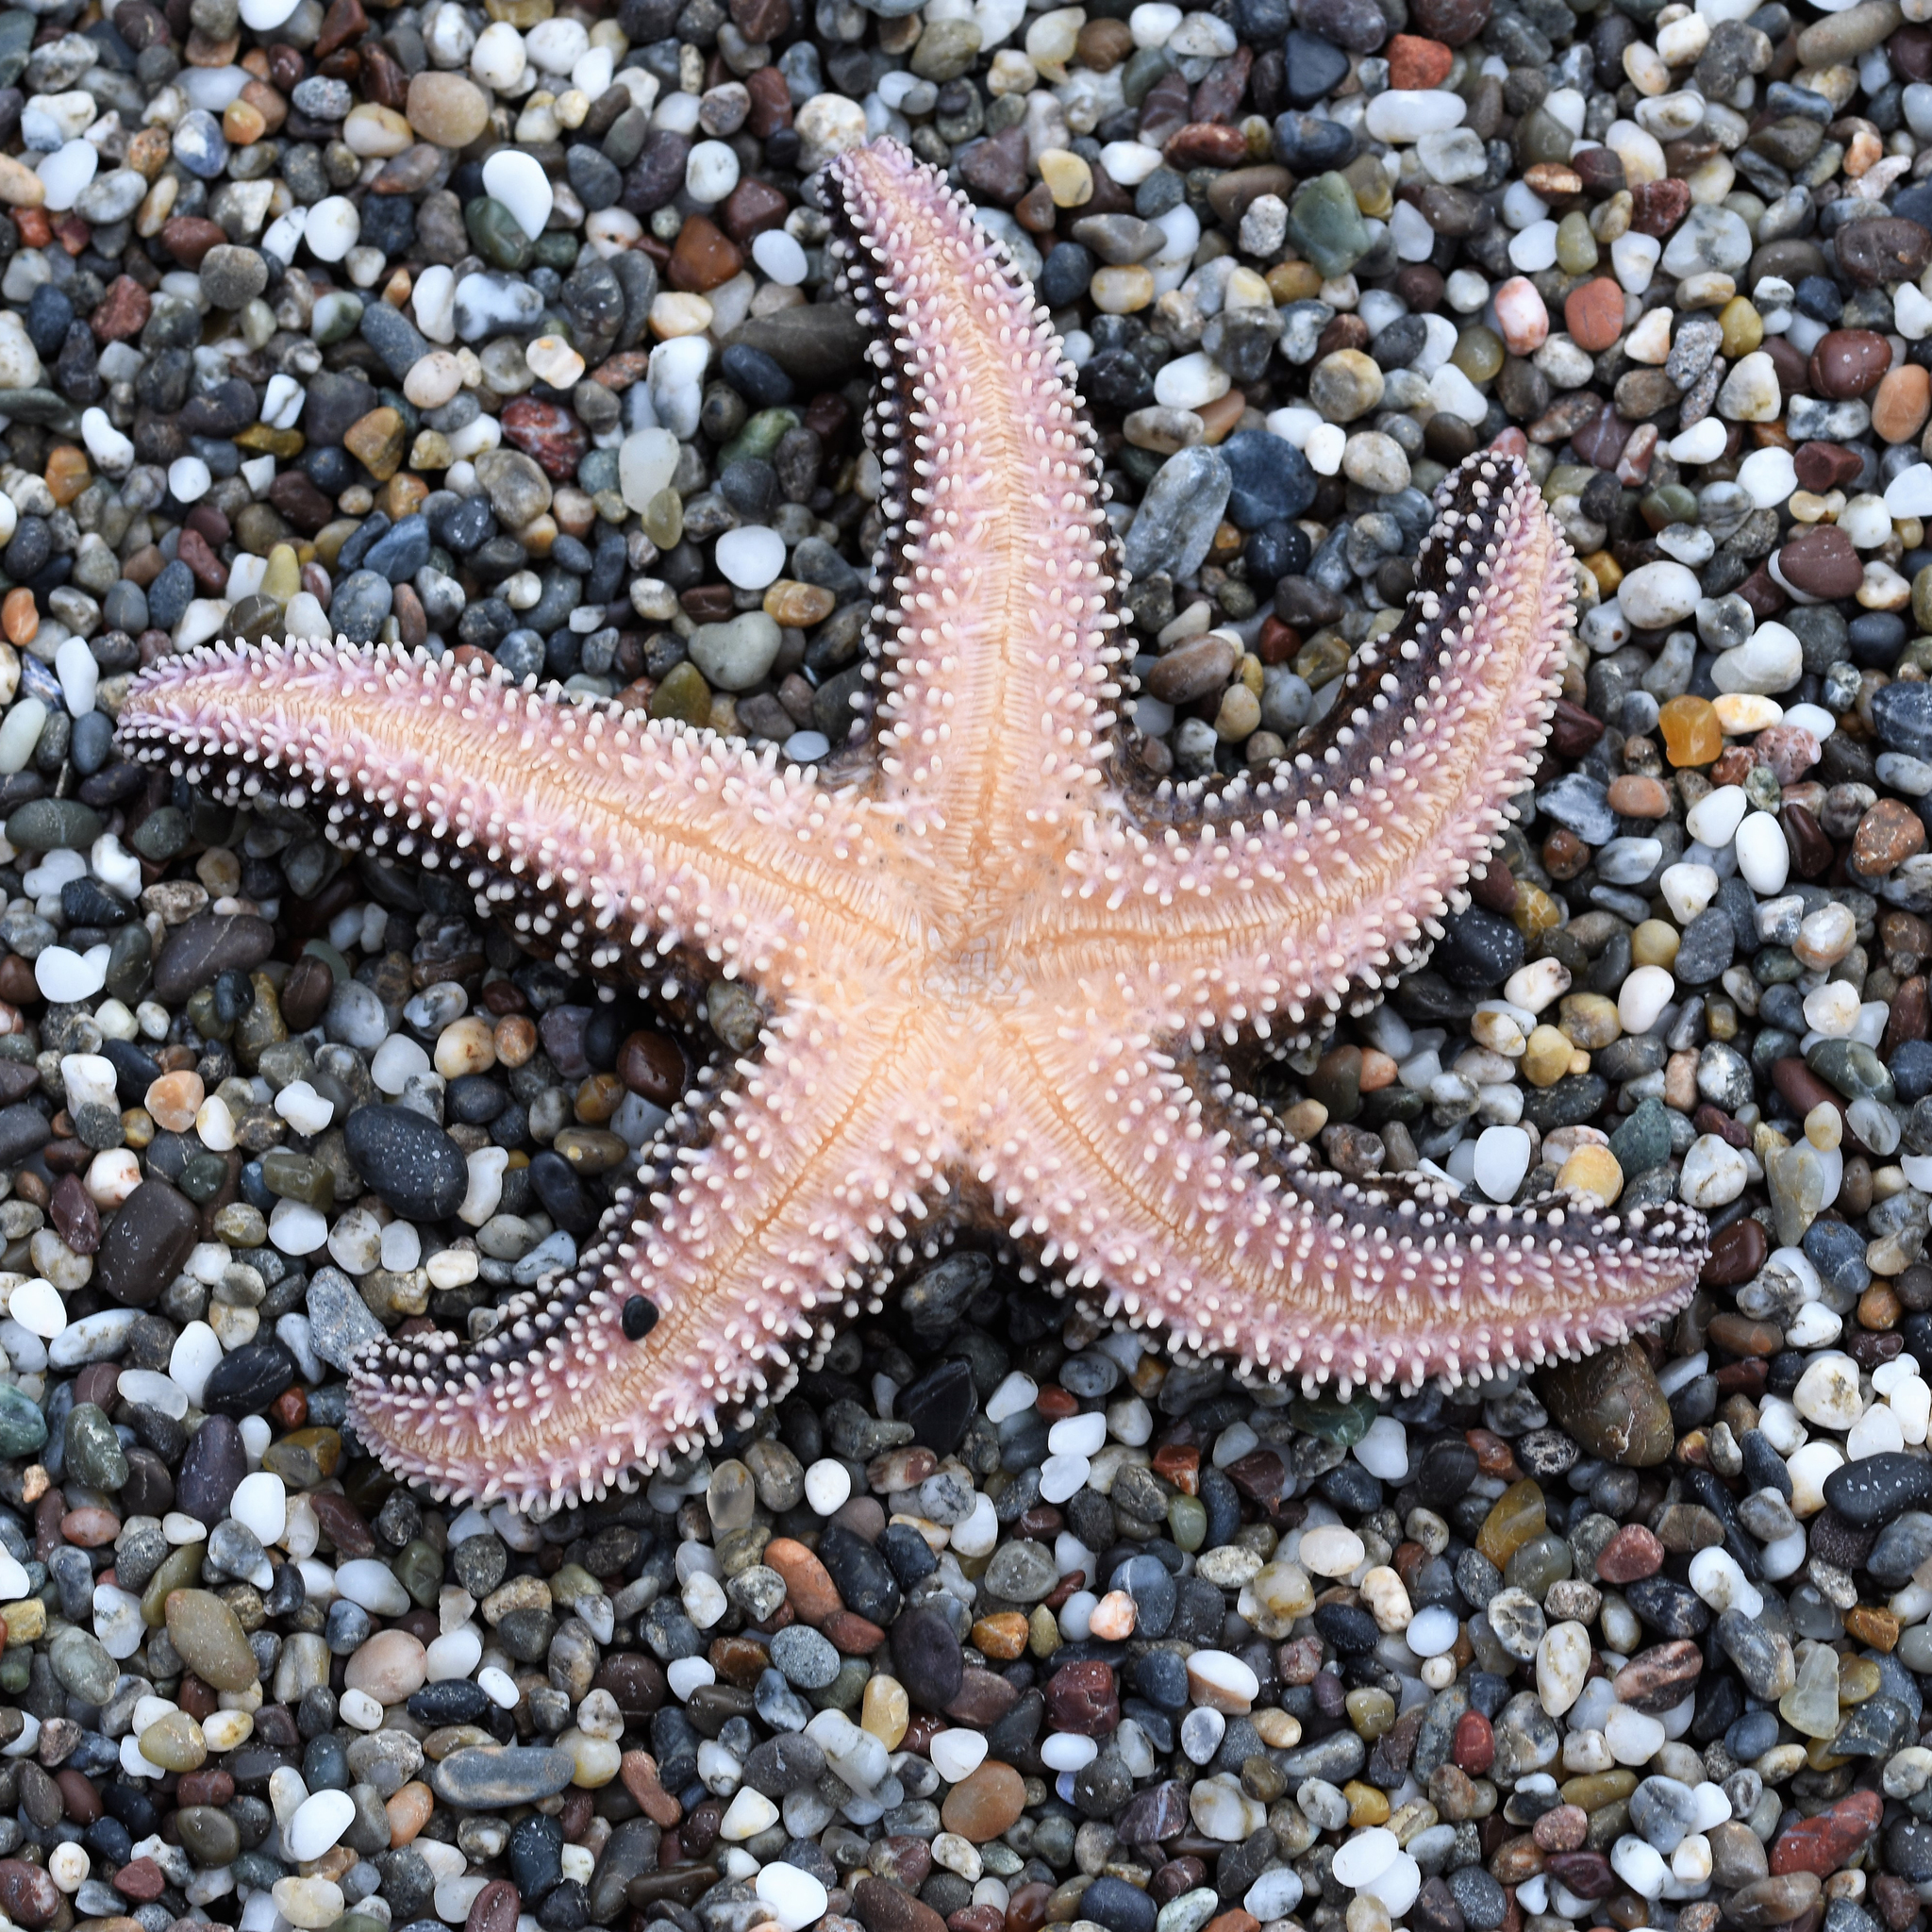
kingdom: Animalia
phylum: Echinodermata
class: Asteroidea
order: Forcipulatida
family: Asteriidae
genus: Pisaster
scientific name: Pisaster ochraceus
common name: Ochre stars
